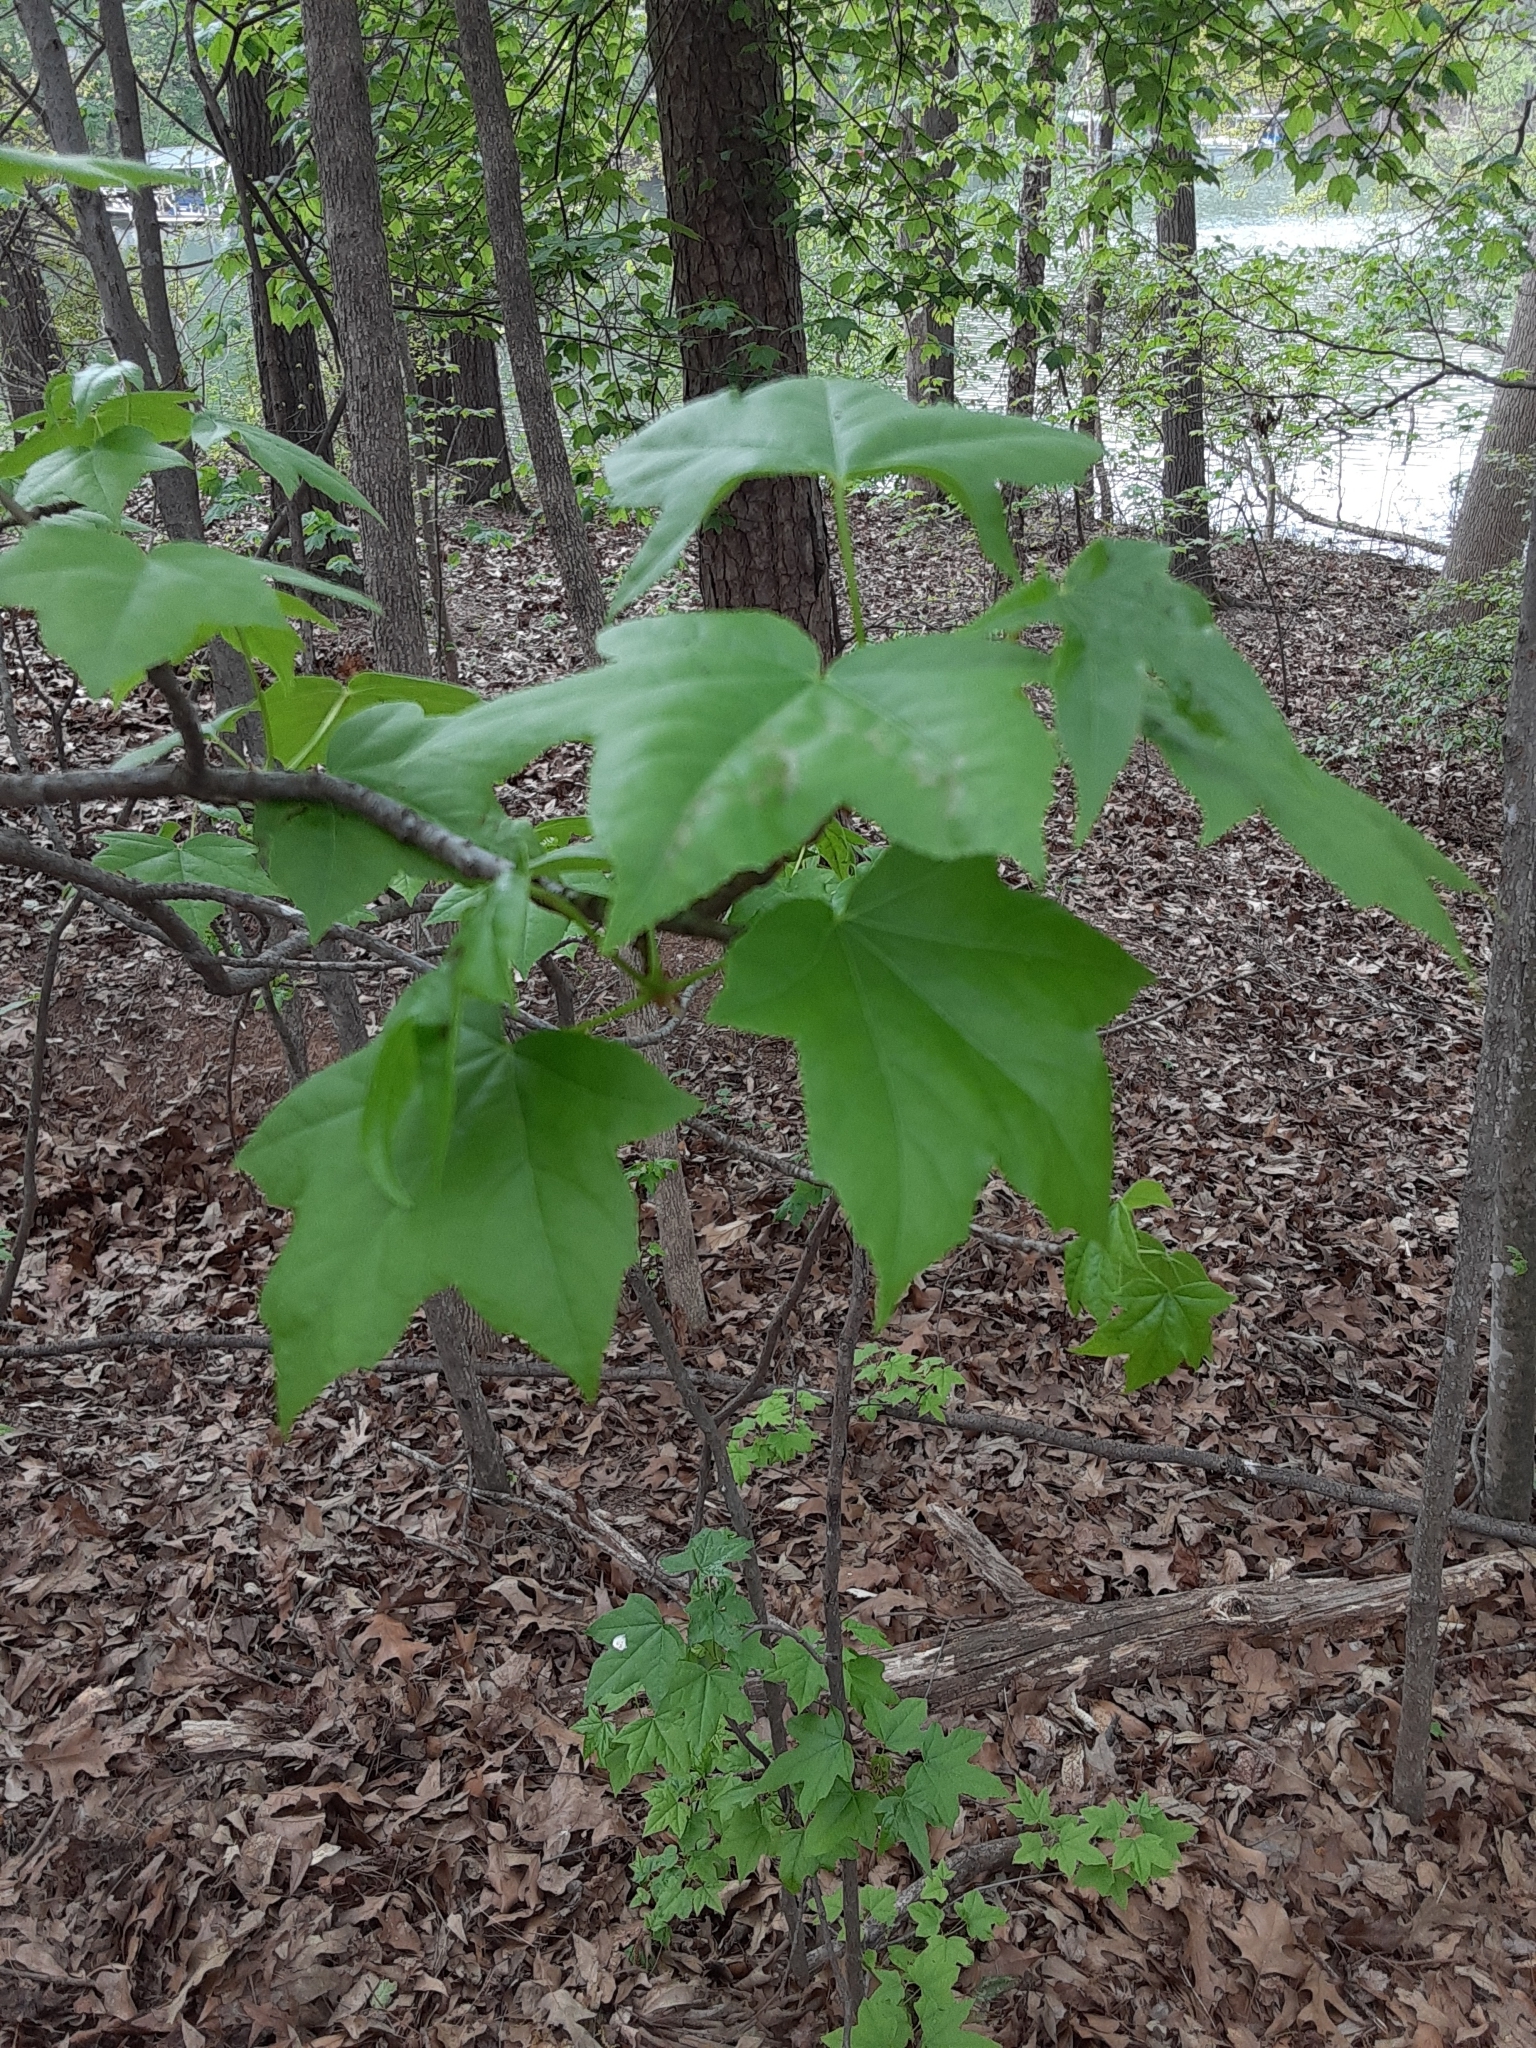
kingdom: Plantae
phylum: Tracheophyta
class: Magnoliopsida
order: Saxifragales
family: Altingiaceae
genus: Liquidambar
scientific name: Liquidambar styraciflua
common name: Sweet gum
